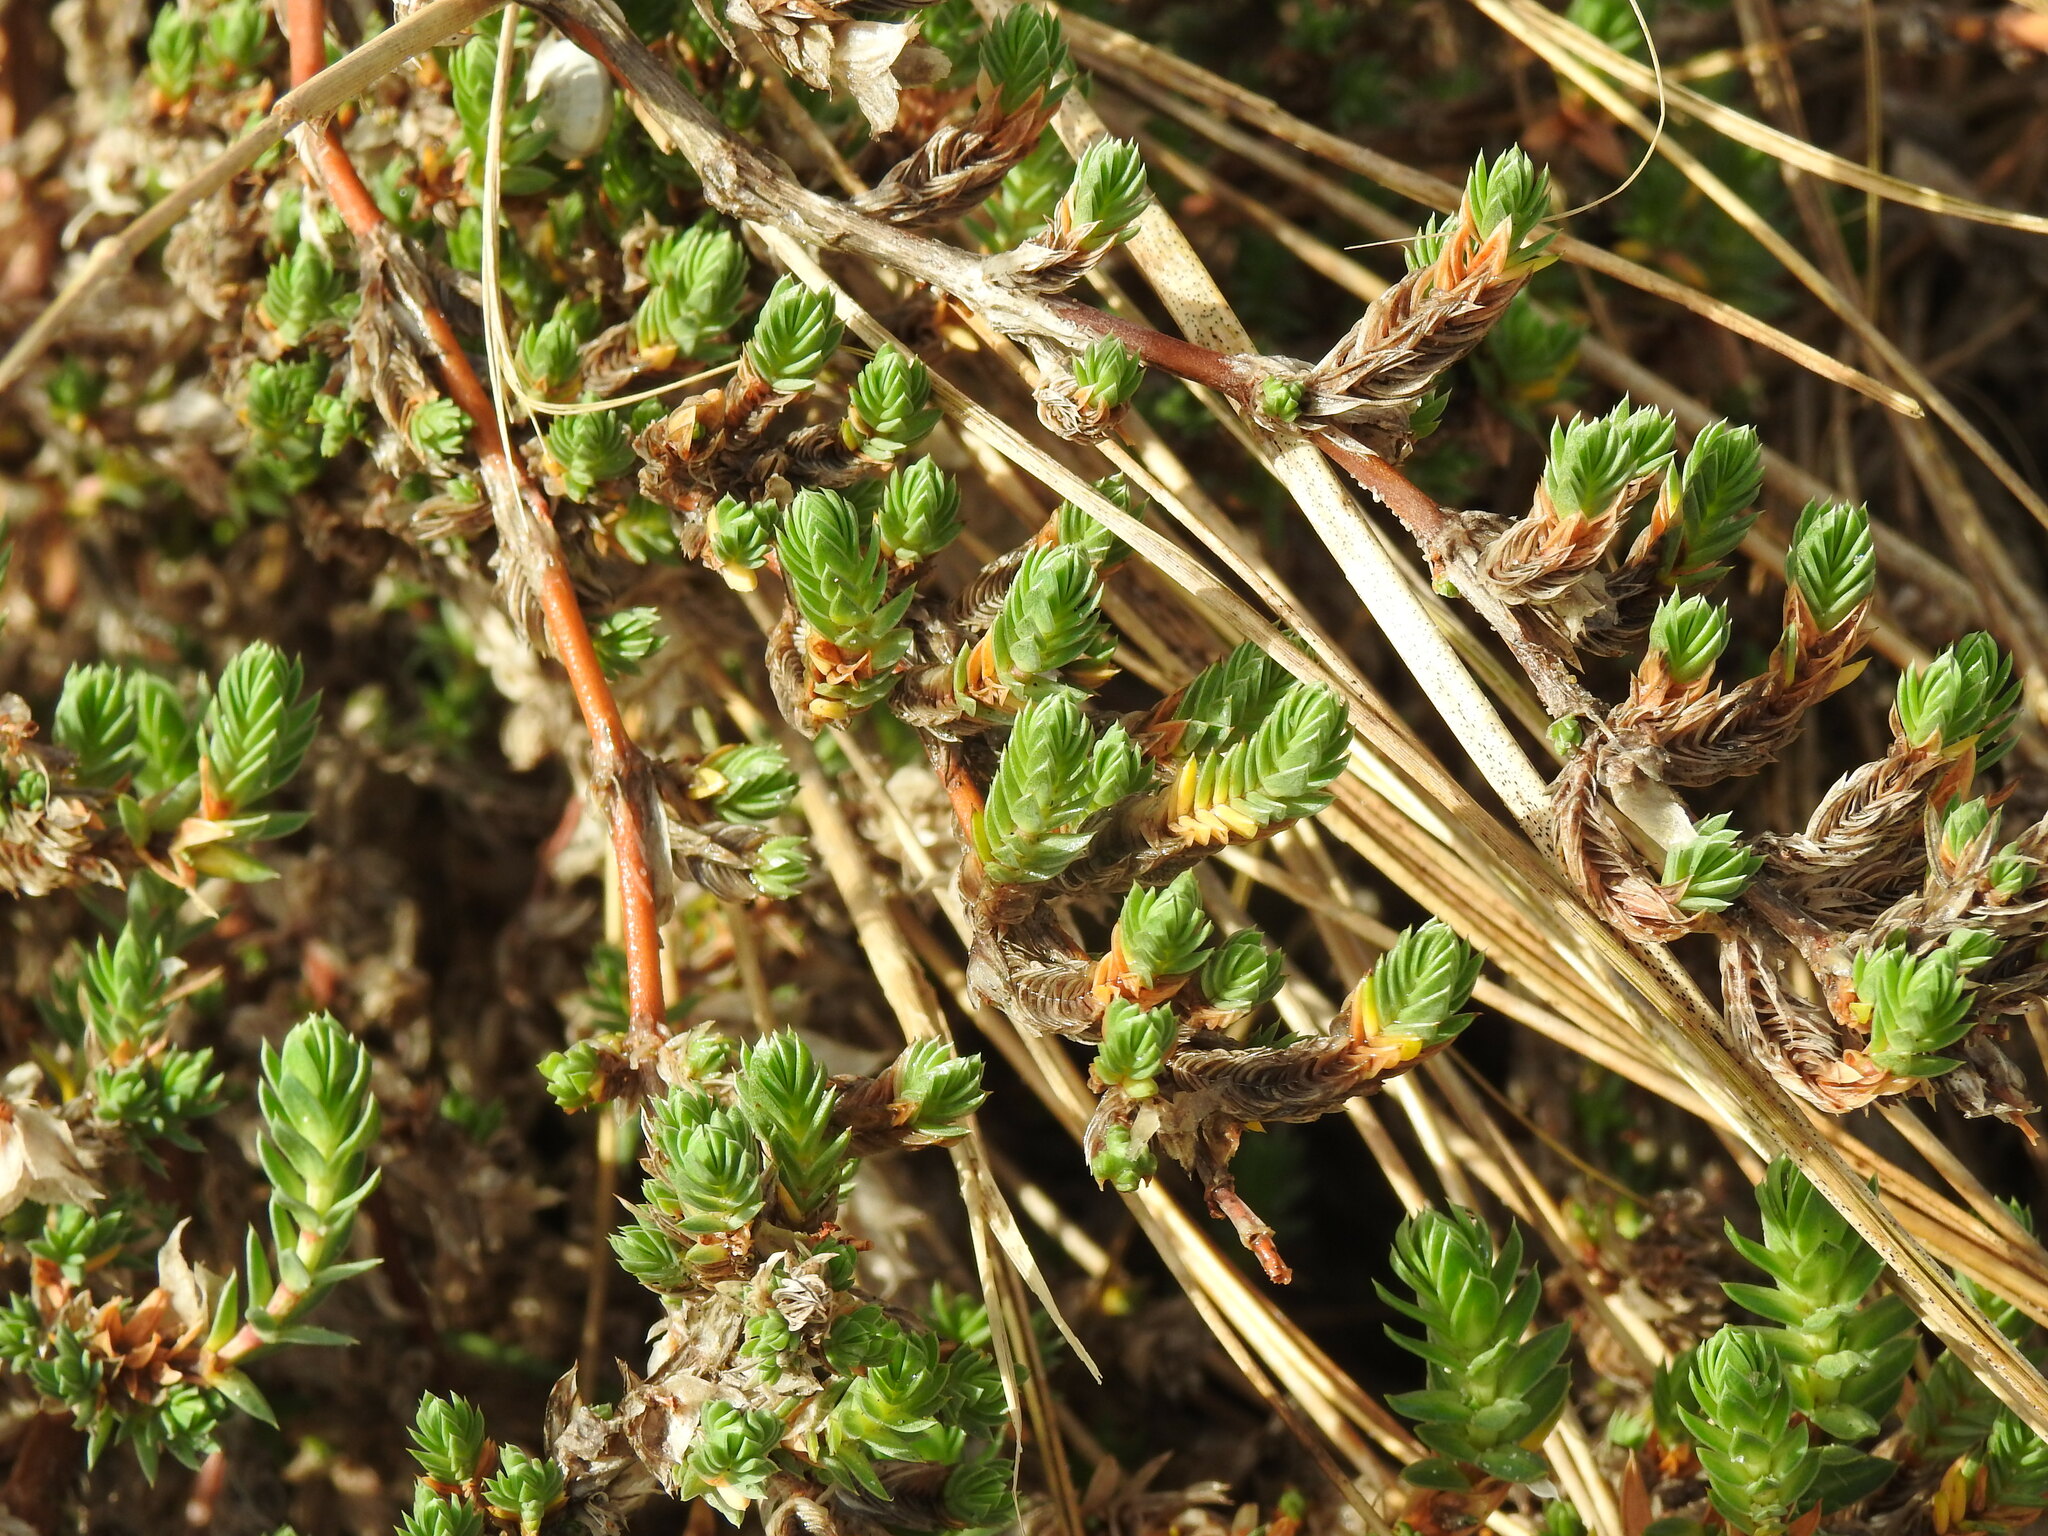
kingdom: Plantae
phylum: Tracheophyta
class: Magnoliopsida
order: Gentianales
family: Rubiaceae
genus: Crucianella
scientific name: Crucianella maritima
